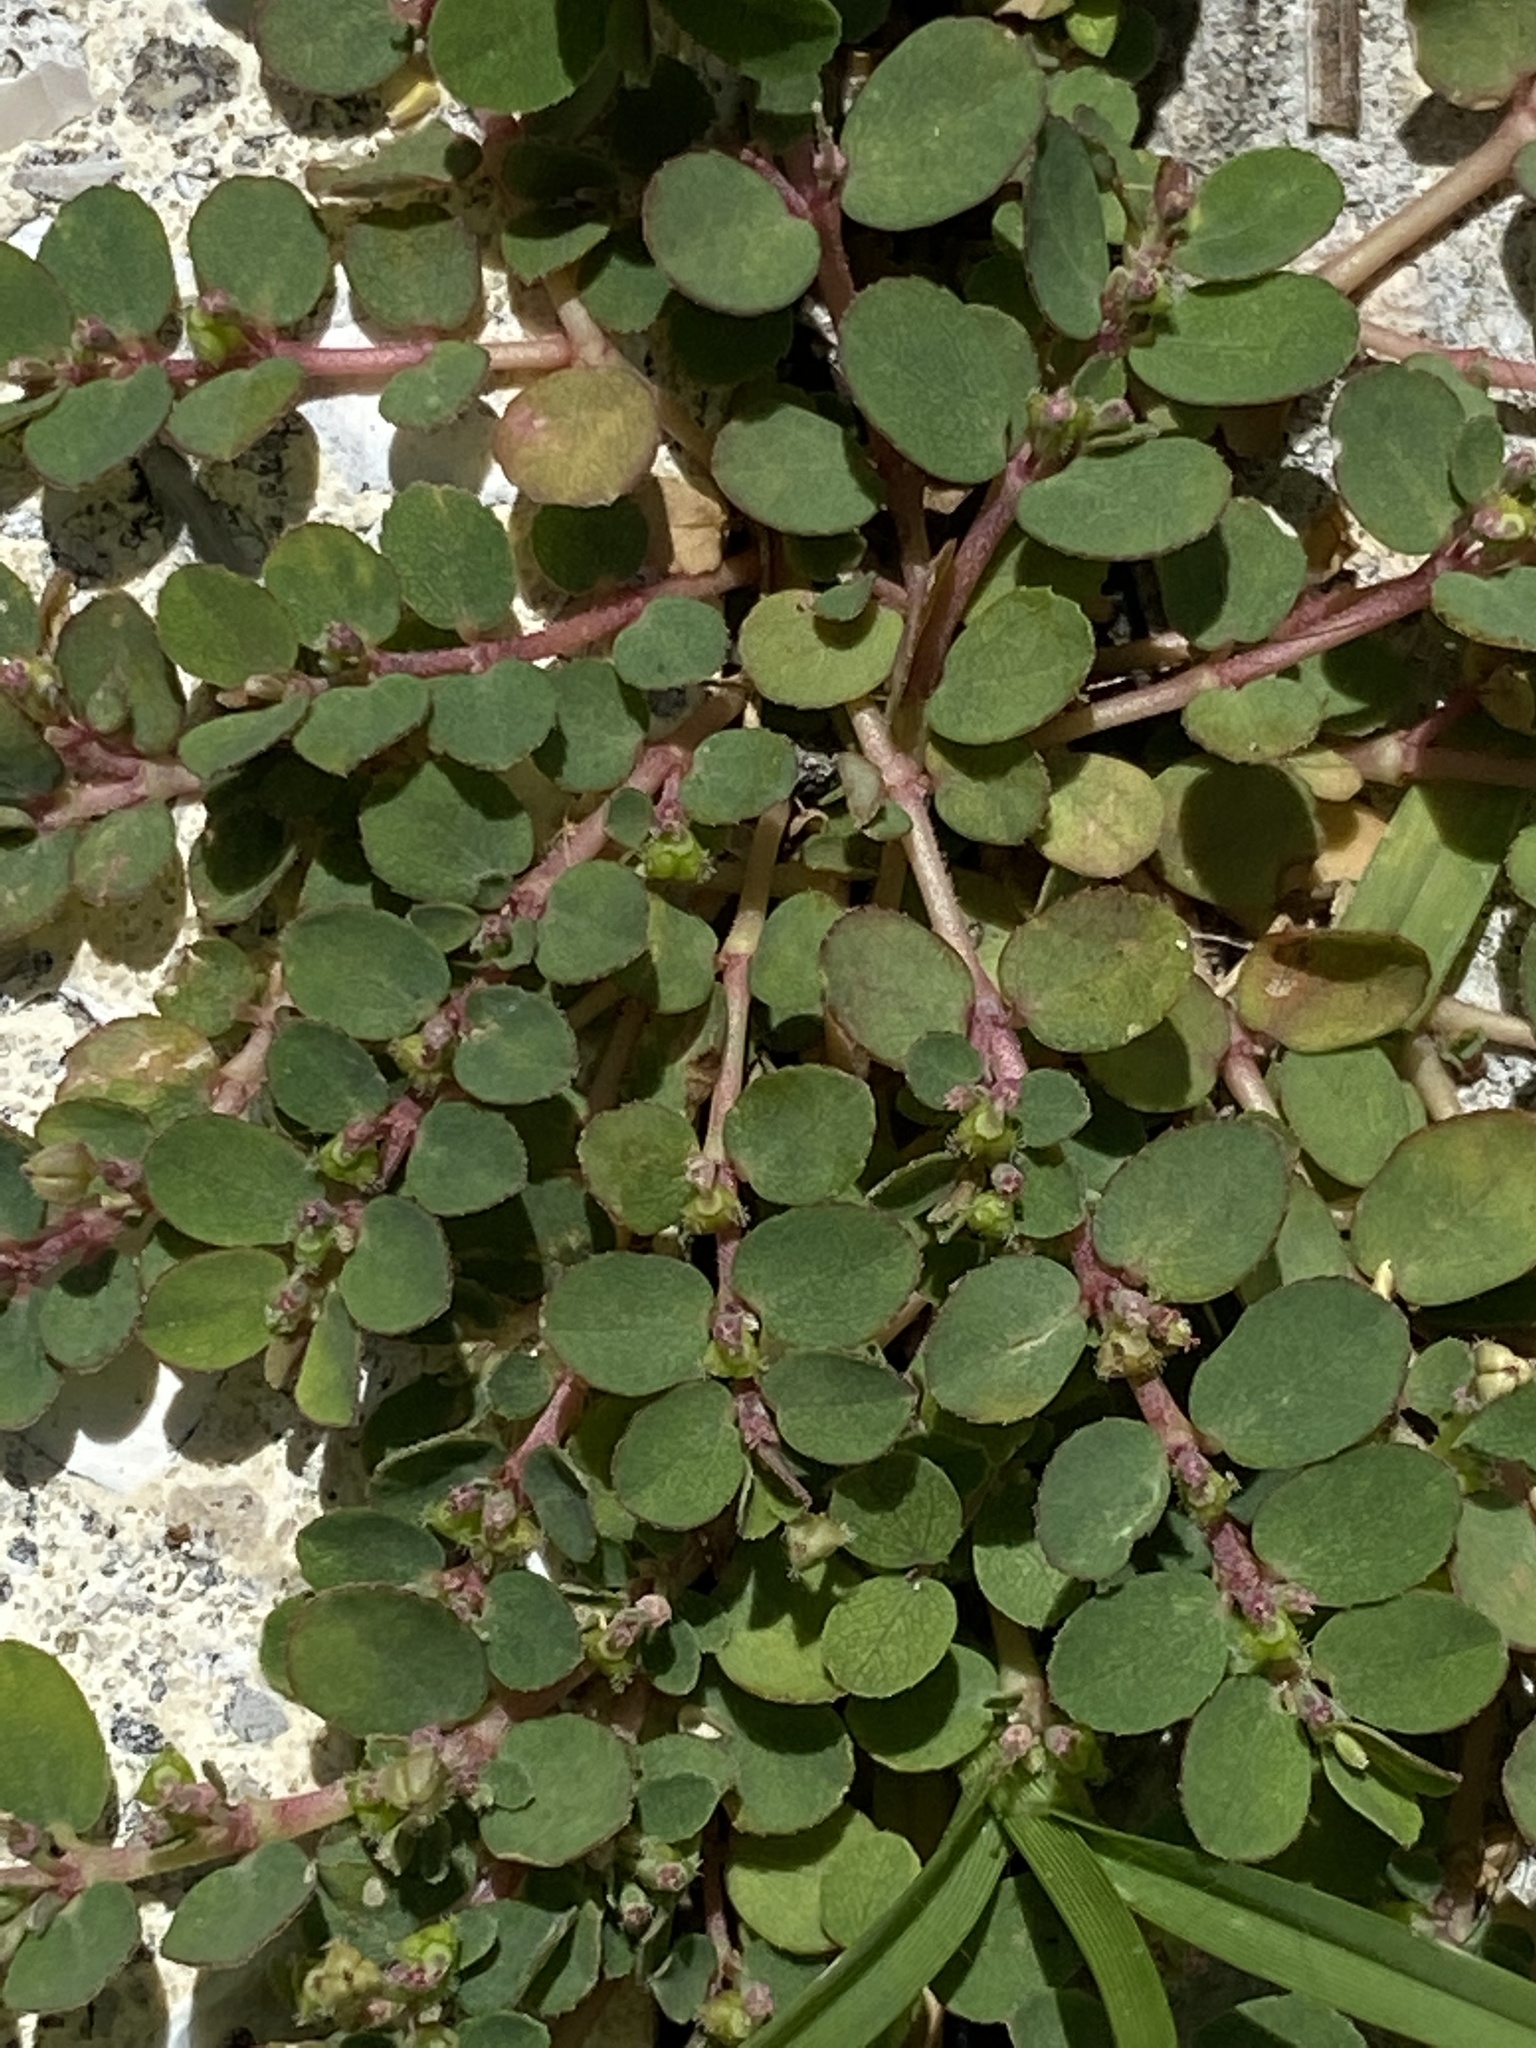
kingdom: Plantae
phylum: Tracheophyta
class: Magnoliopsida
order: Malpighiales
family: Euphorbiaceae
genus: Euphorbia
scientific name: Euphorbia prostrata
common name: Prostrate sandmat
